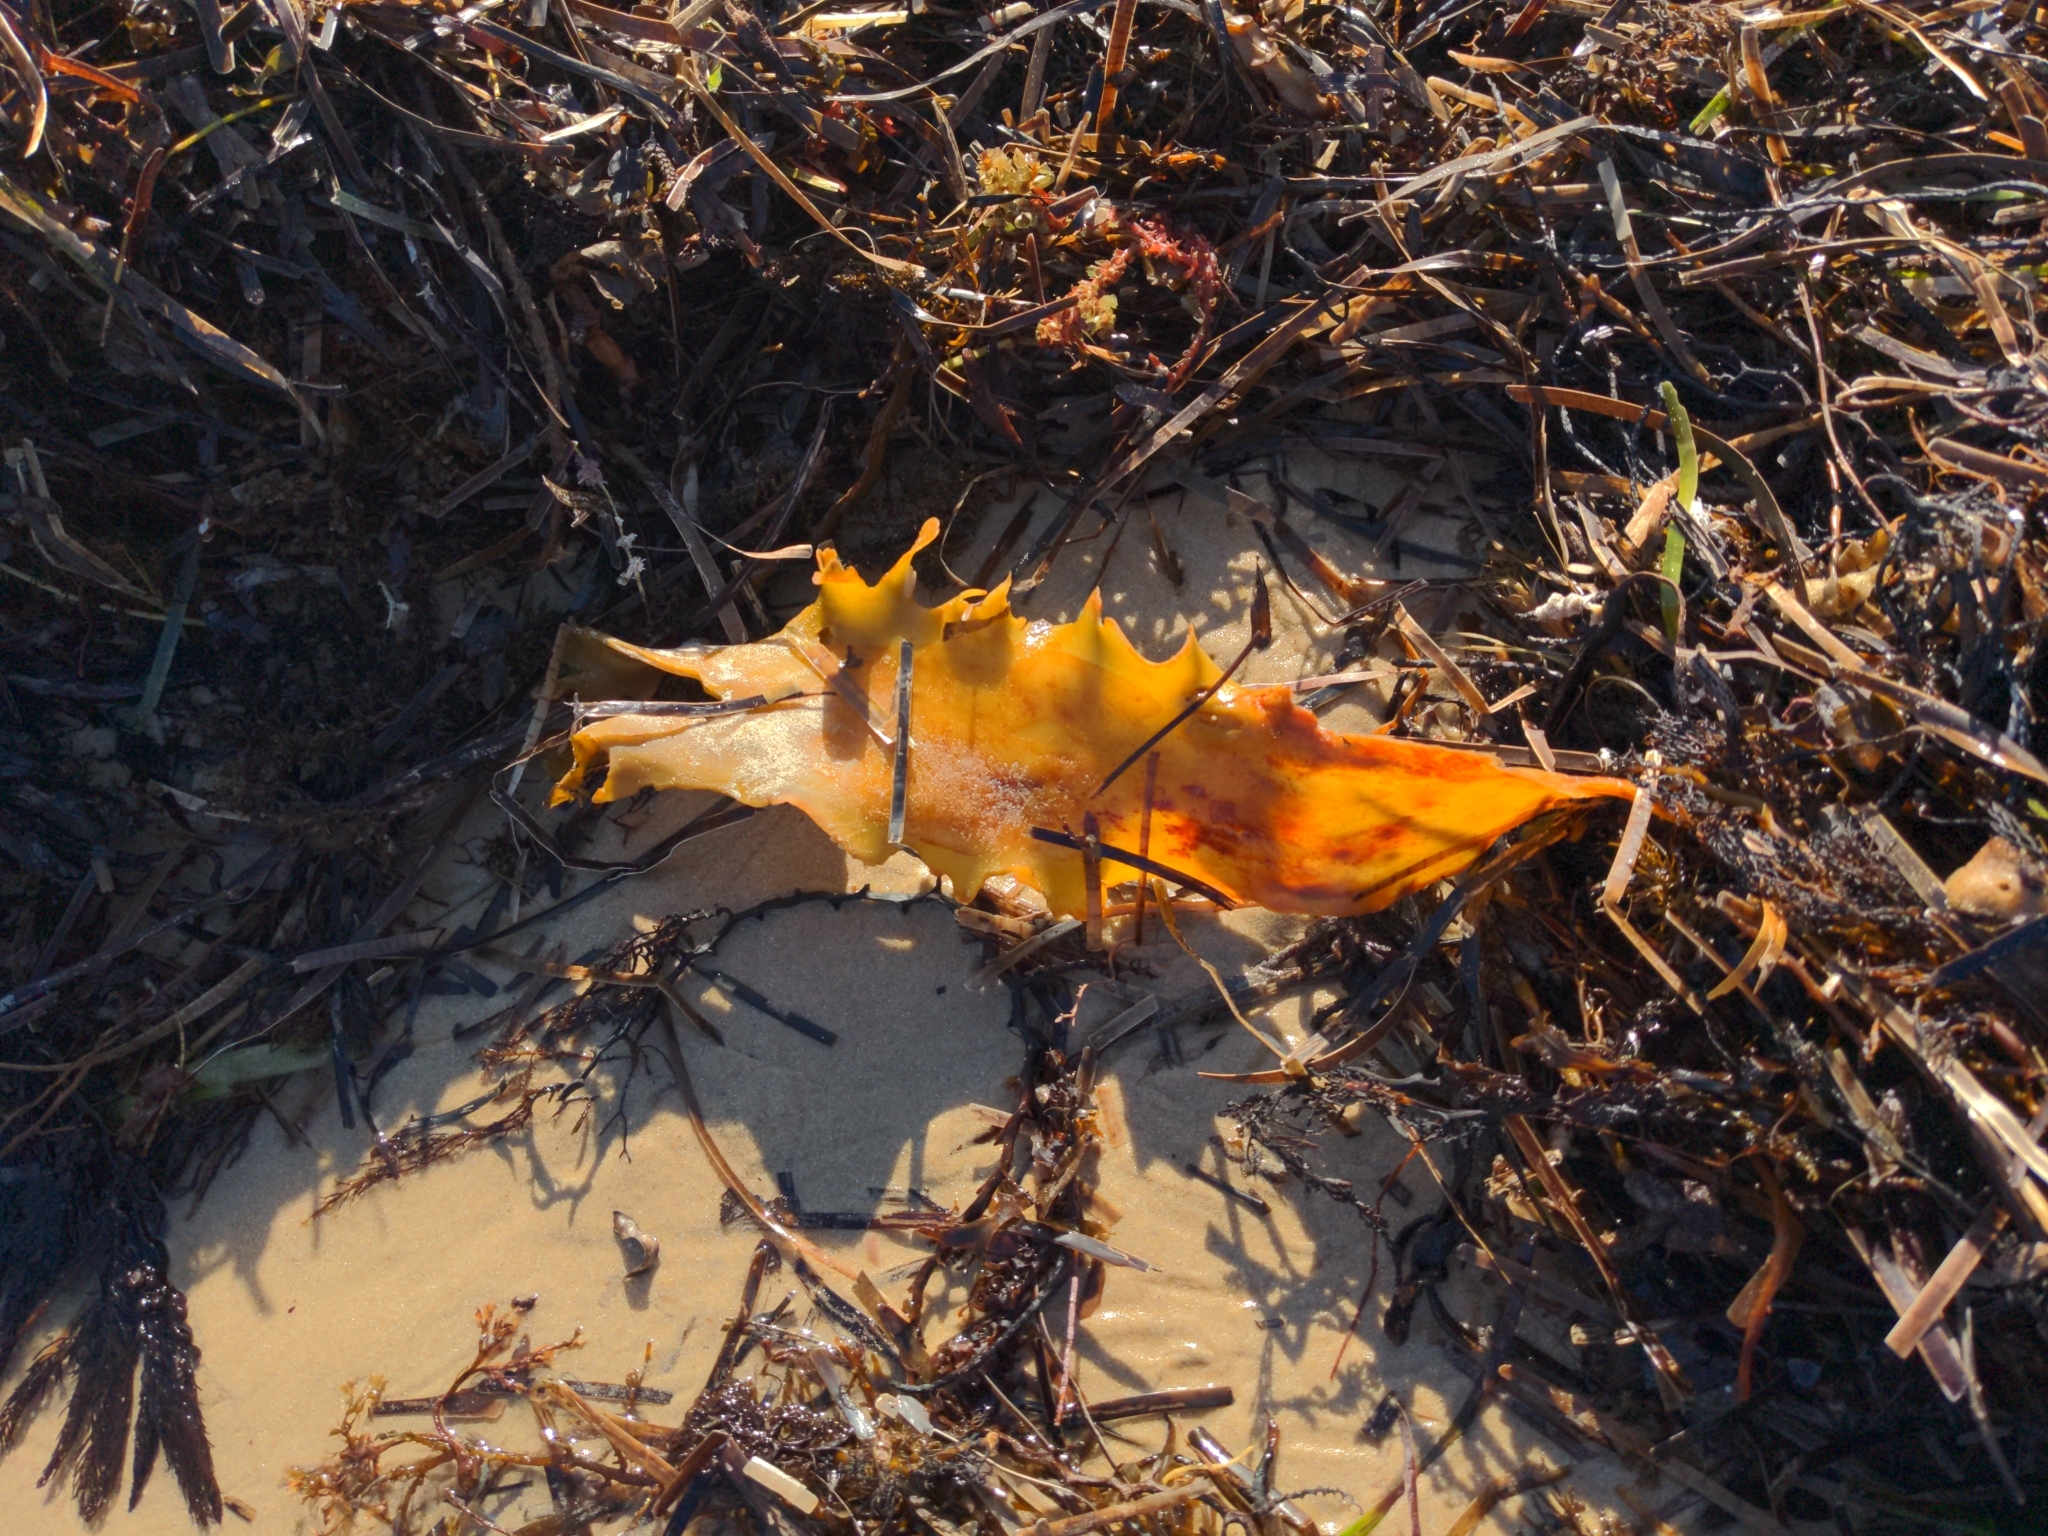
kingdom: Chromista
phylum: Ochrophyta
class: Phaeophyceae
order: Laminariales
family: Lessoniaceae
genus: Ecklonia
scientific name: Ecklonia radiata
